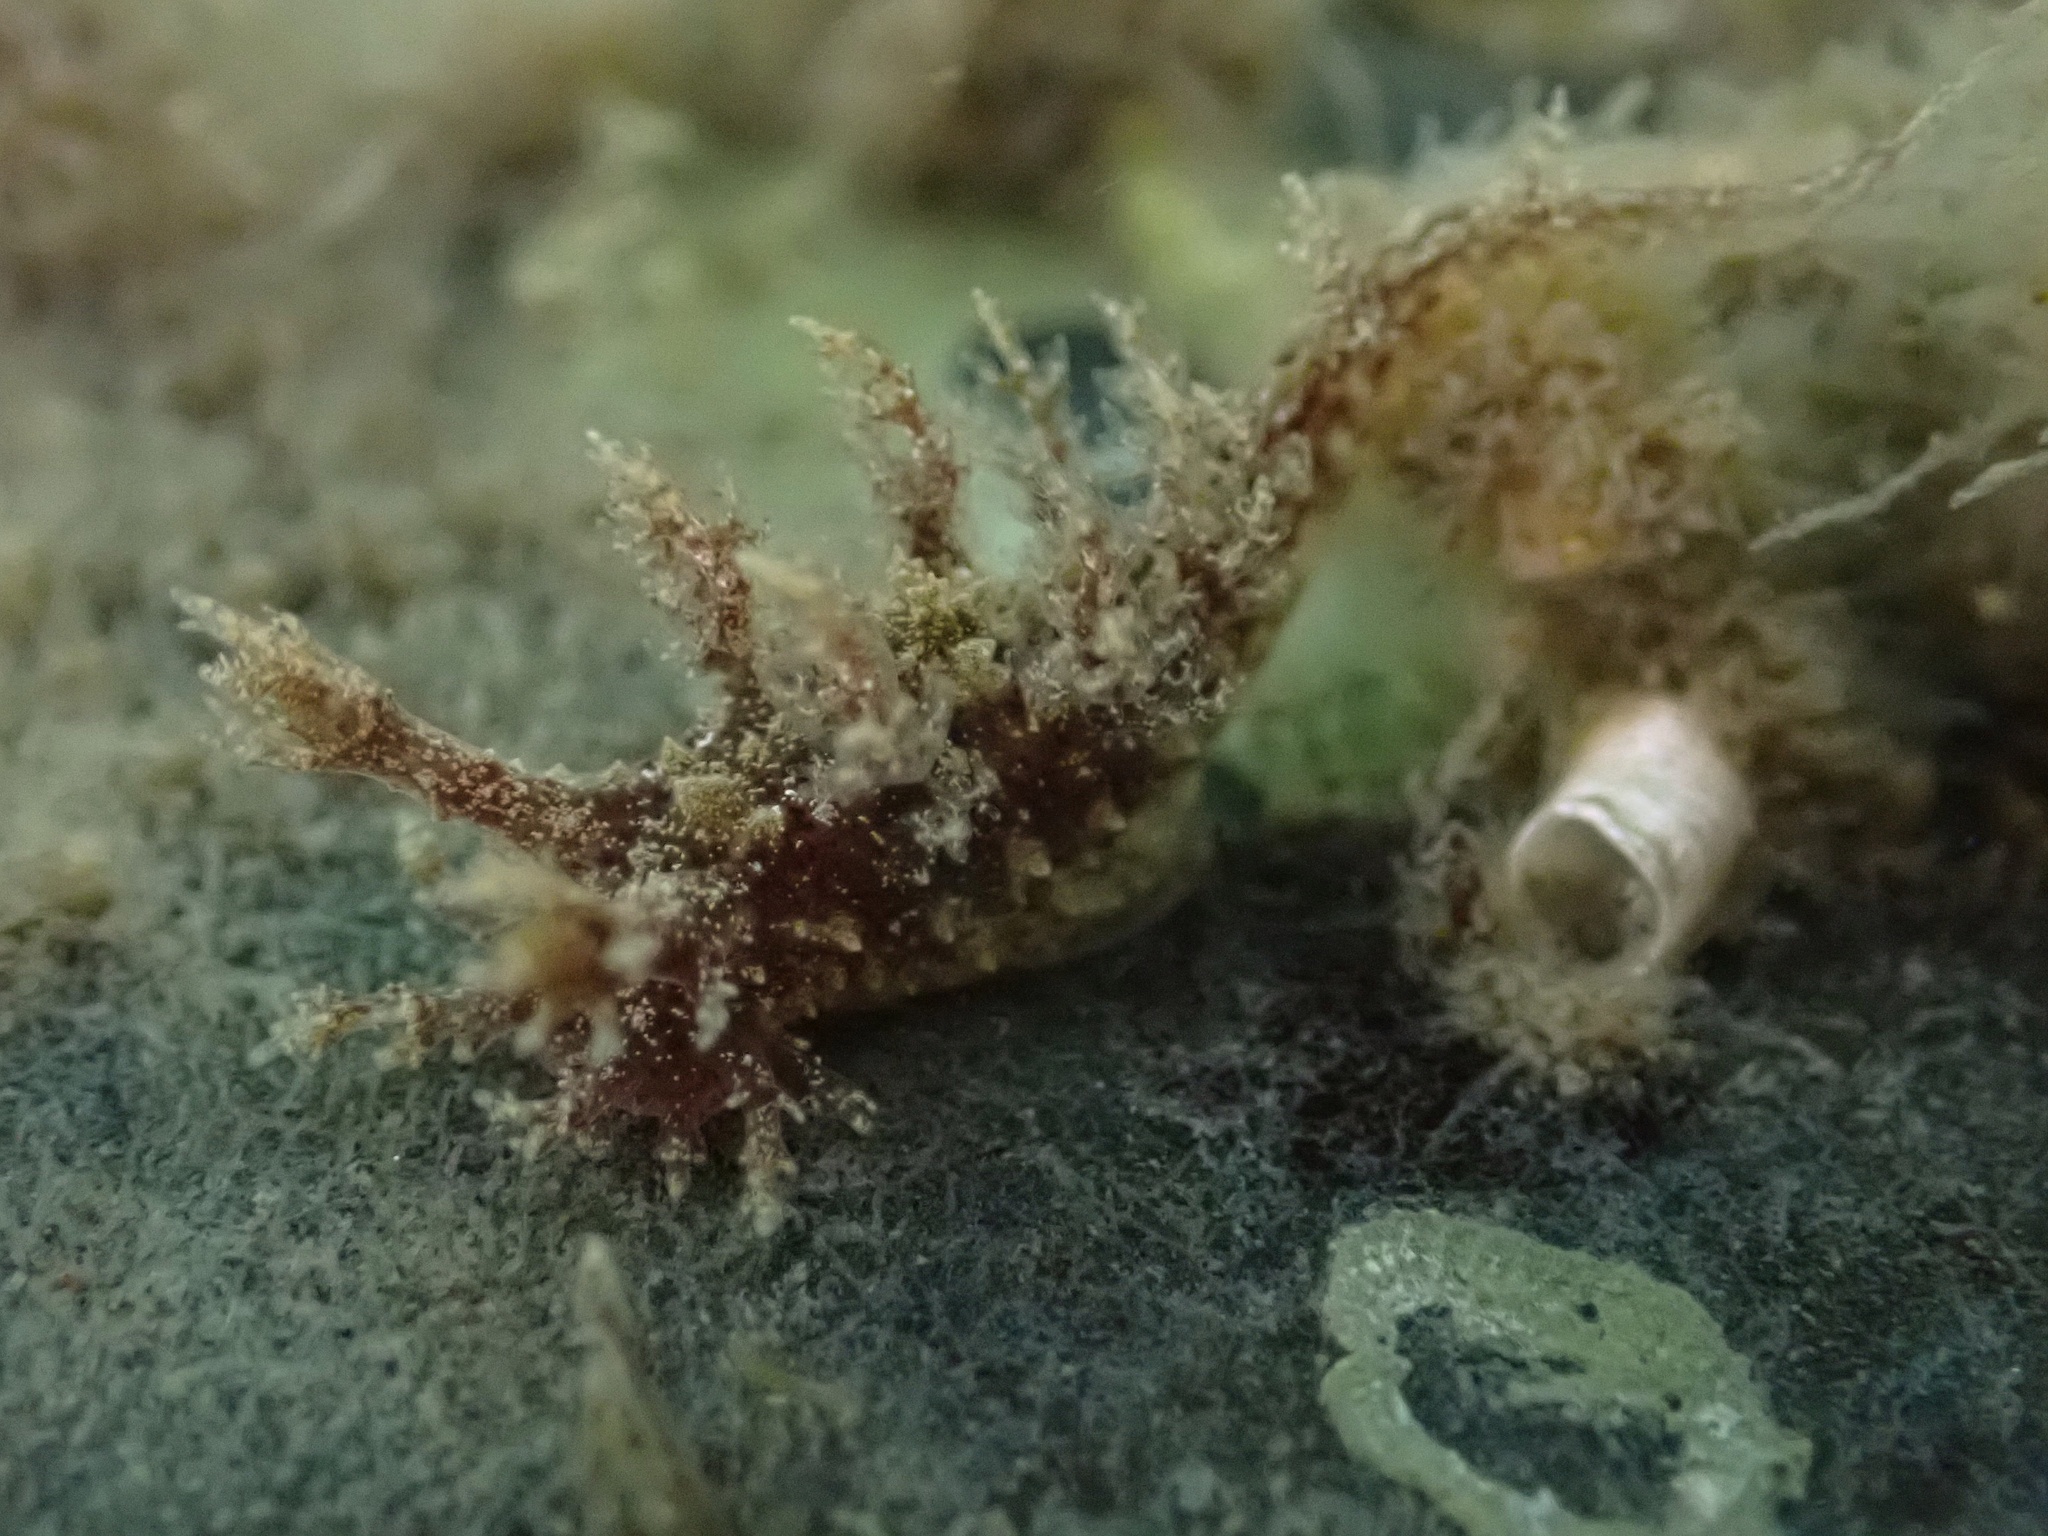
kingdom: Animalia
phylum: Mollusca
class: Gastropoda
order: Nudibranchia
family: Dendronotidae
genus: Dendronotus
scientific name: Dendronotus venustus
